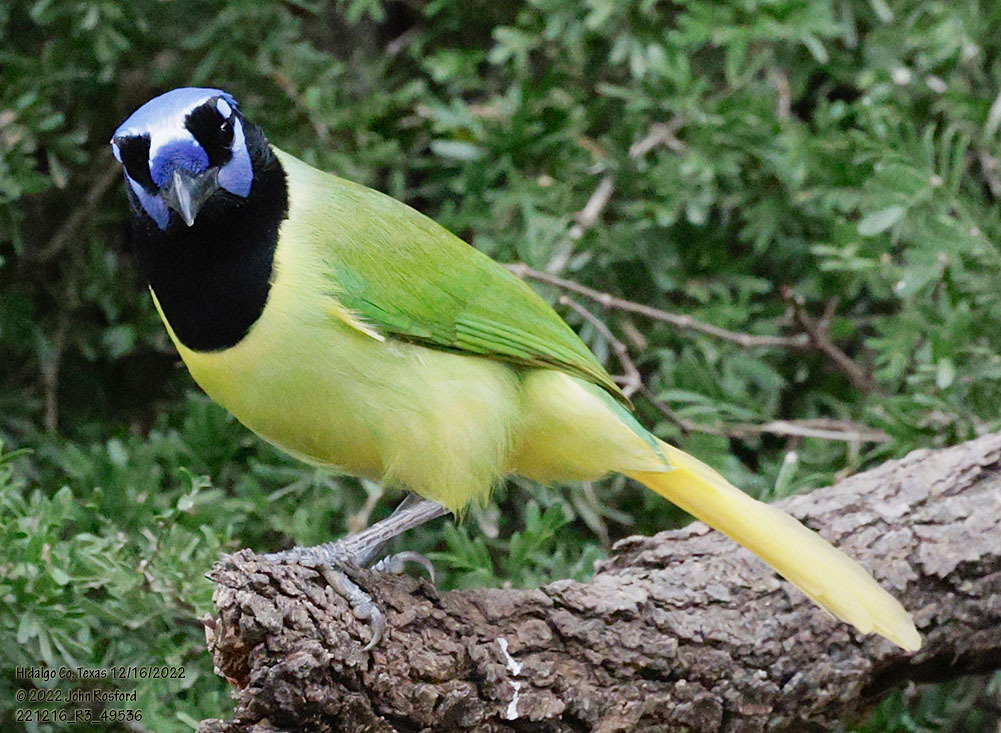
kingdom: Animalia
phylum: Chordata
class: Aves
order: Passeriformes
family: Corvidae
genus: Cyanocorax
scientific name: Cyanocorax yncas
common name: Green jay
